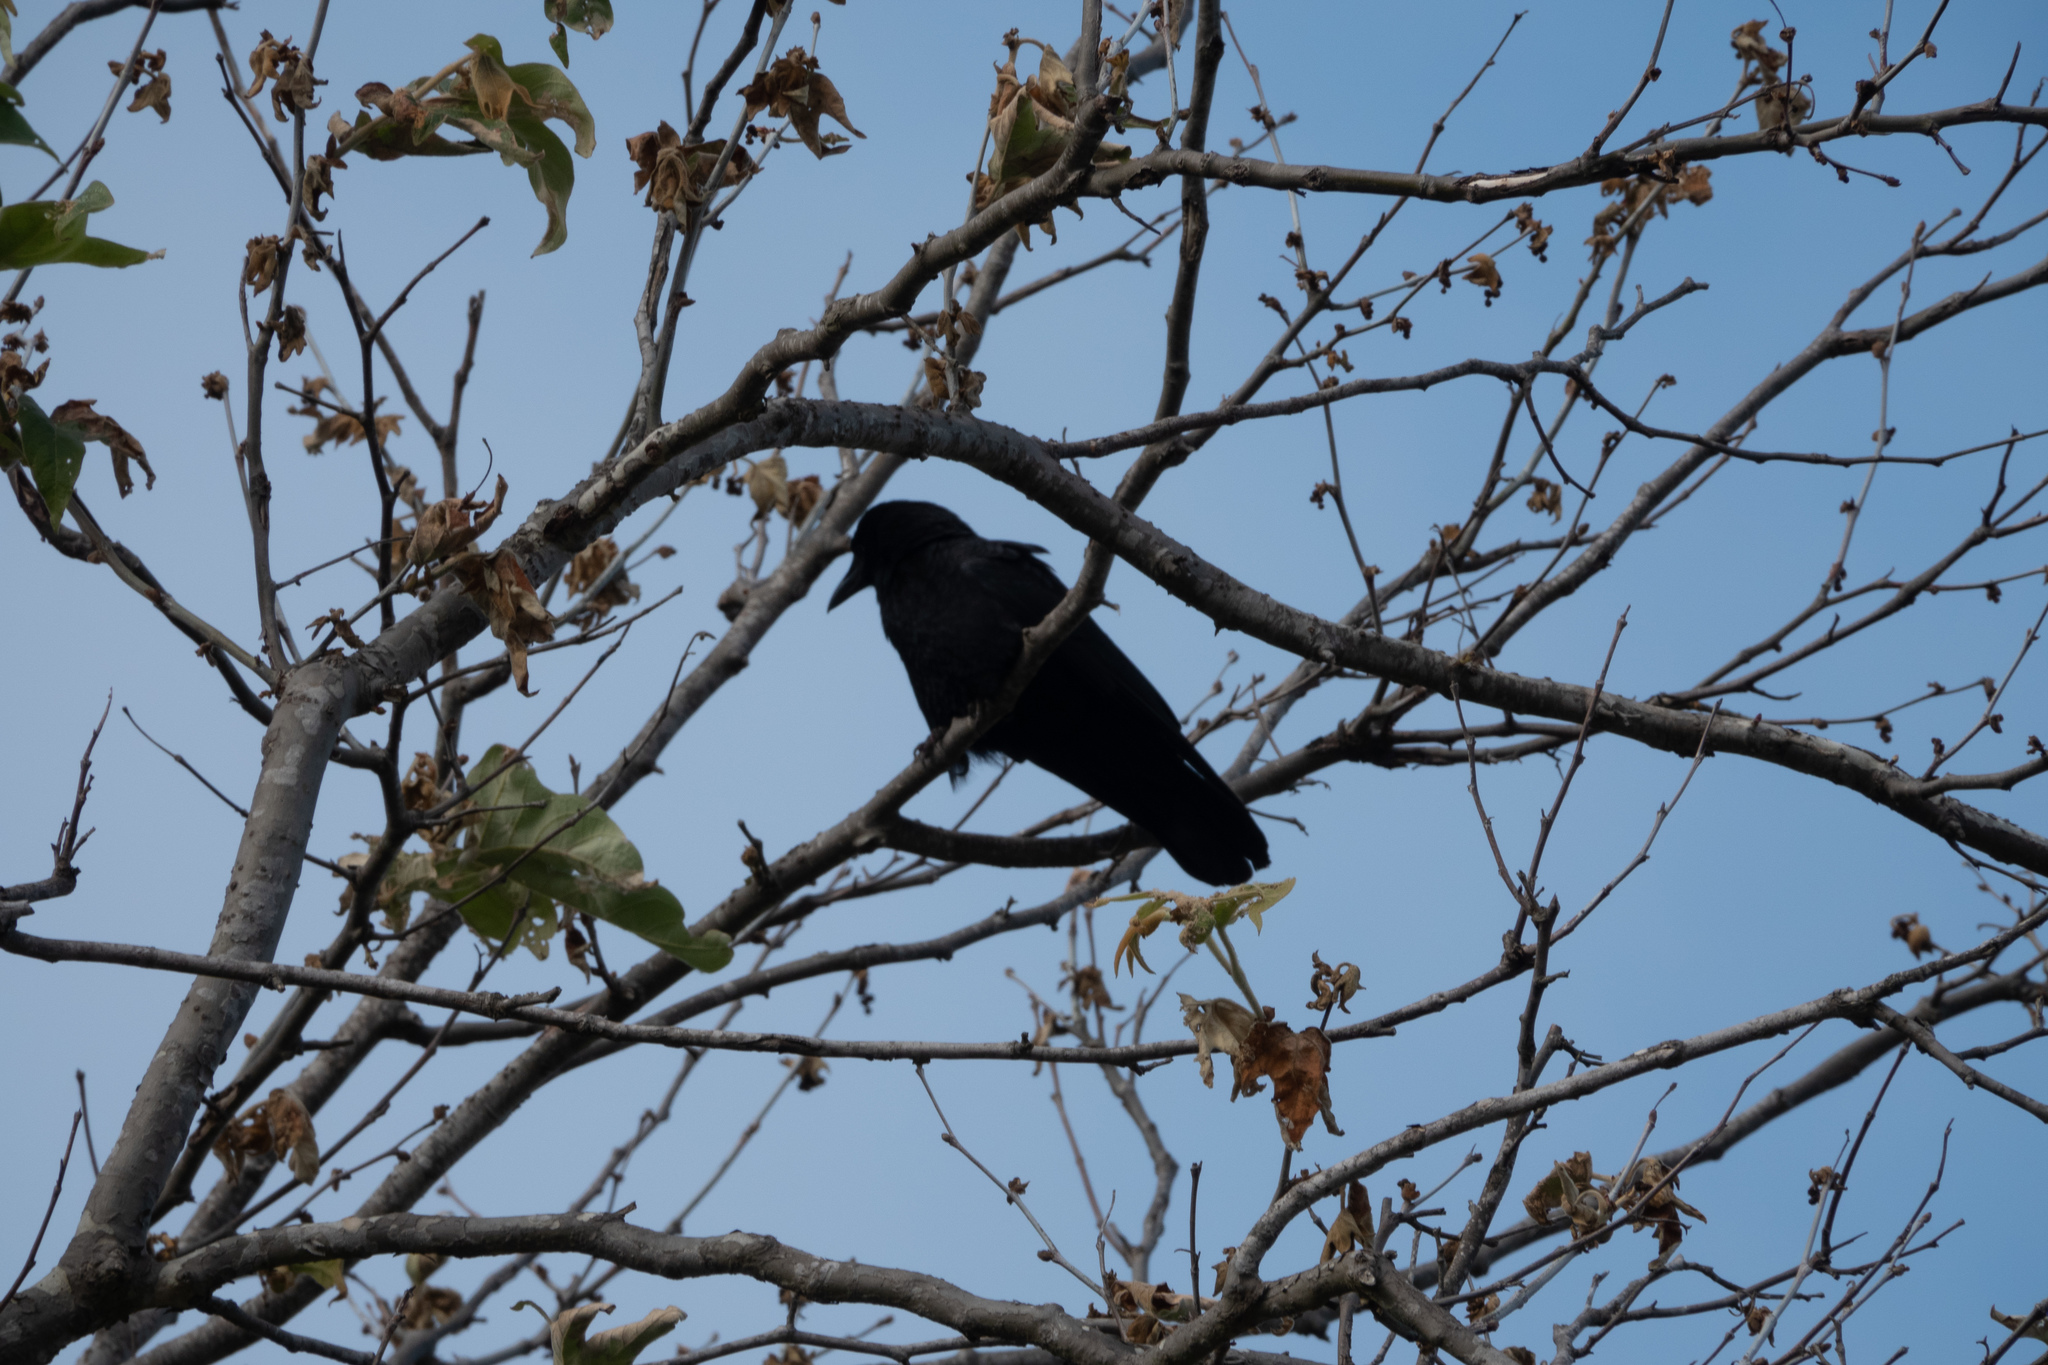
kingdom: Animalia
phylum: Chordata
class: Aves
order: Passeriformes
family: Corvidae
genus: Corvus
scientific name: Corvus brachyrhynchos
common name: American crow
